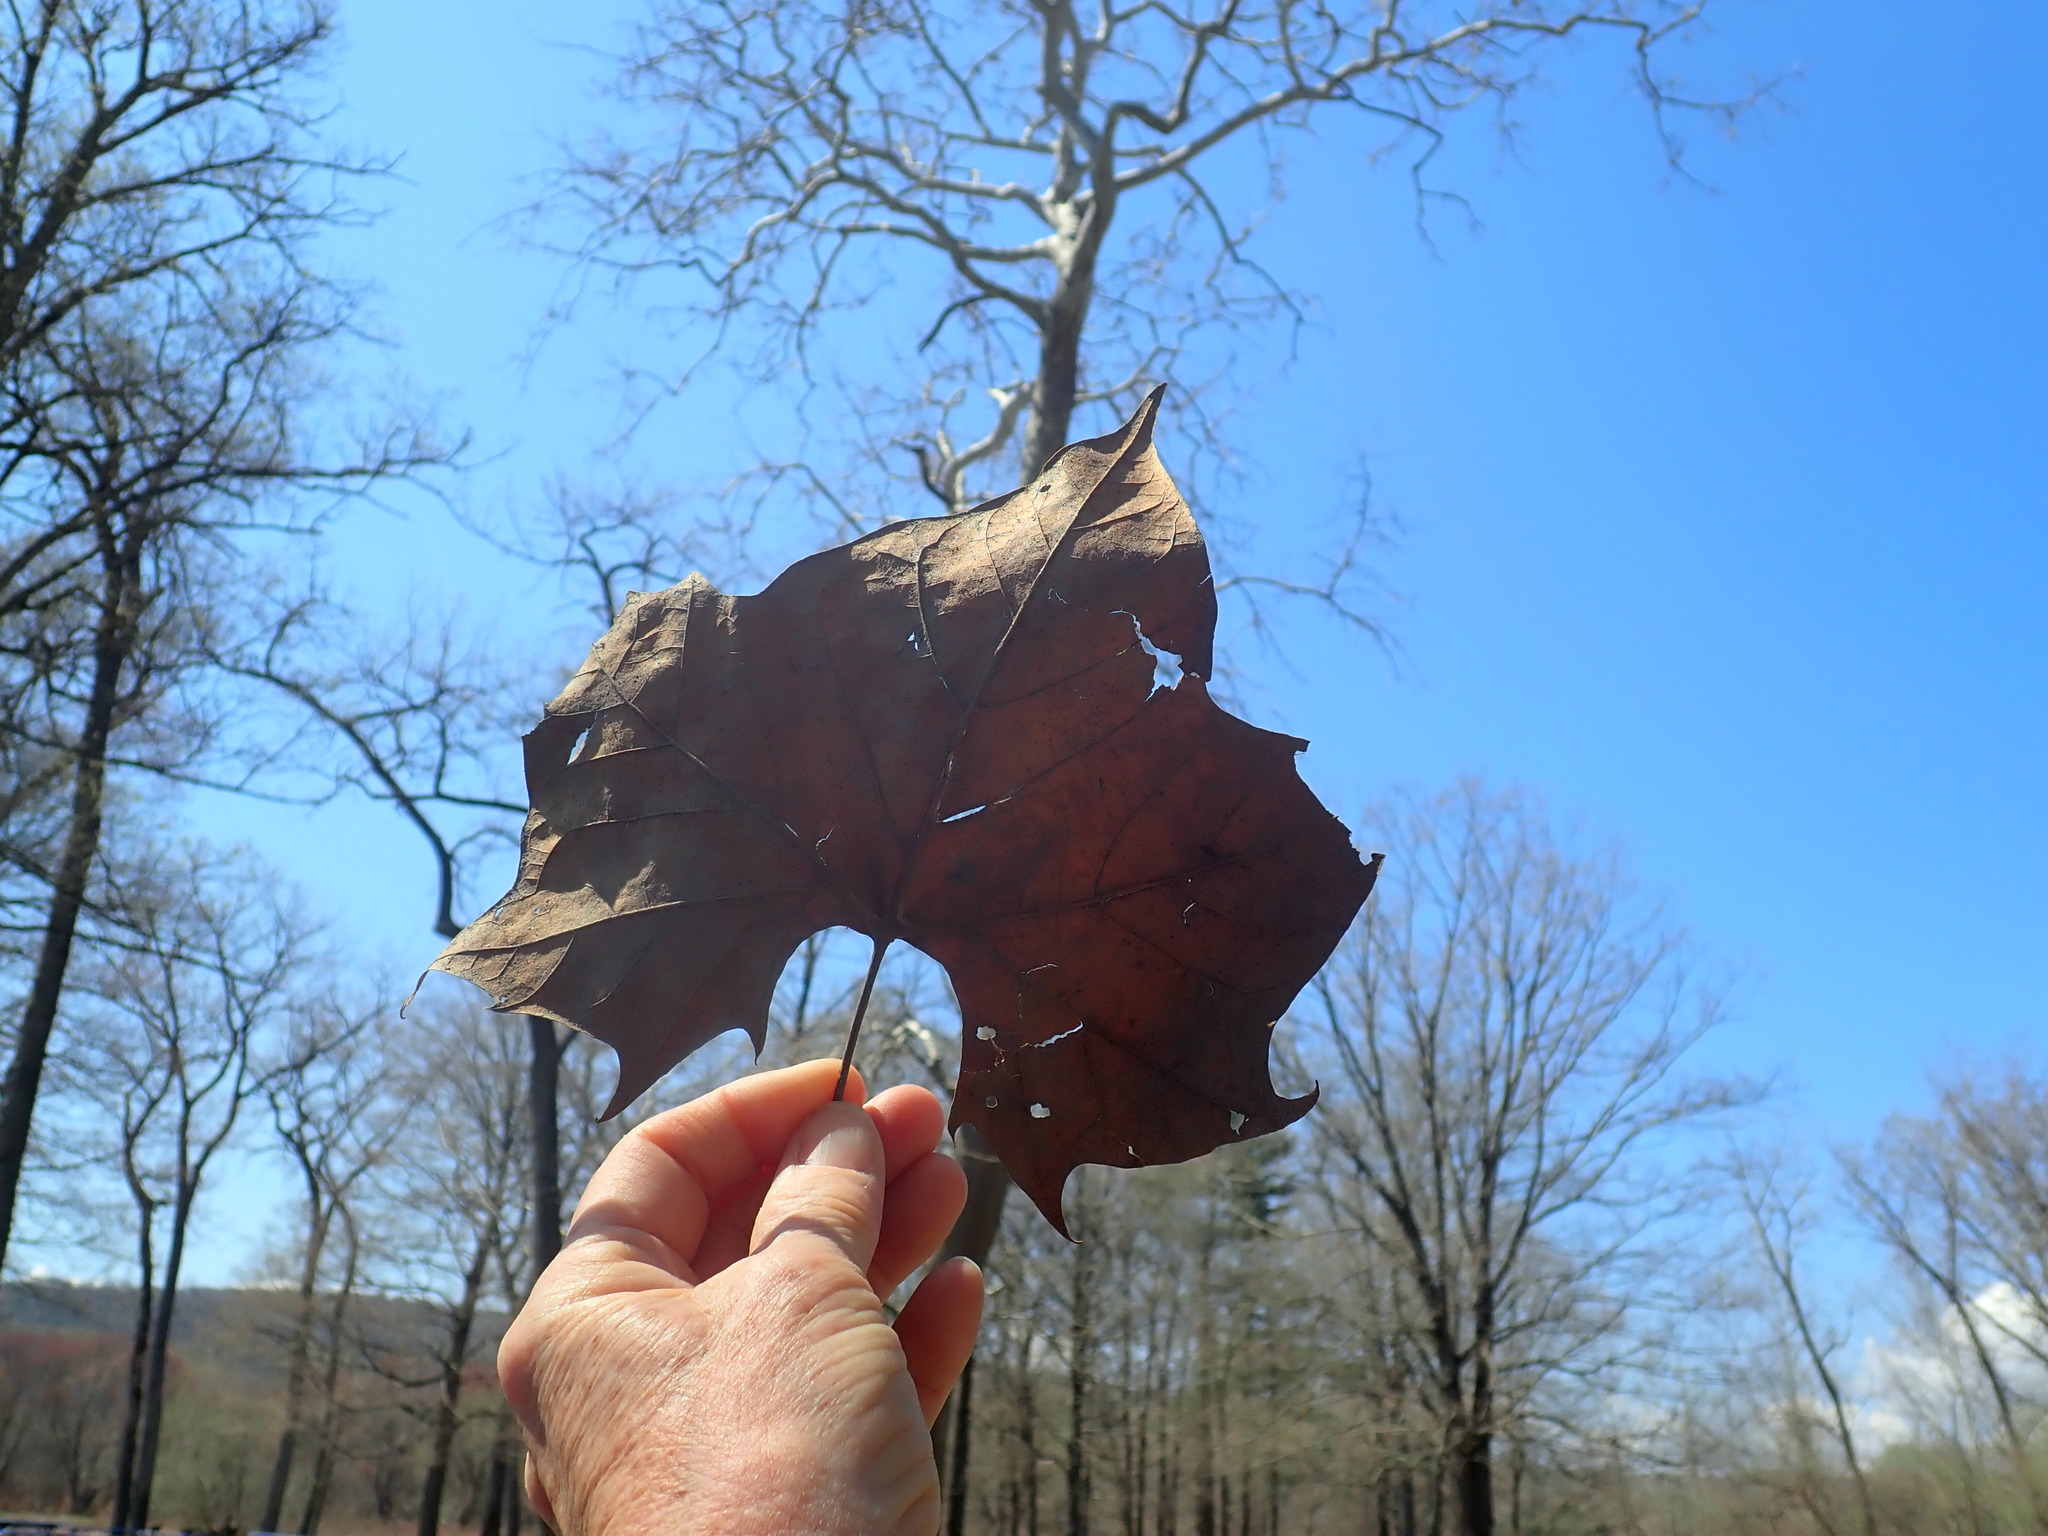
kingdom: Plantae
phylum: Tracheophyta
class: Magnoliopsida
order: Proteales
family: Platanaceae
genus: Platanus
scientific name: Platanus occidentalis
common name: American sycamore
